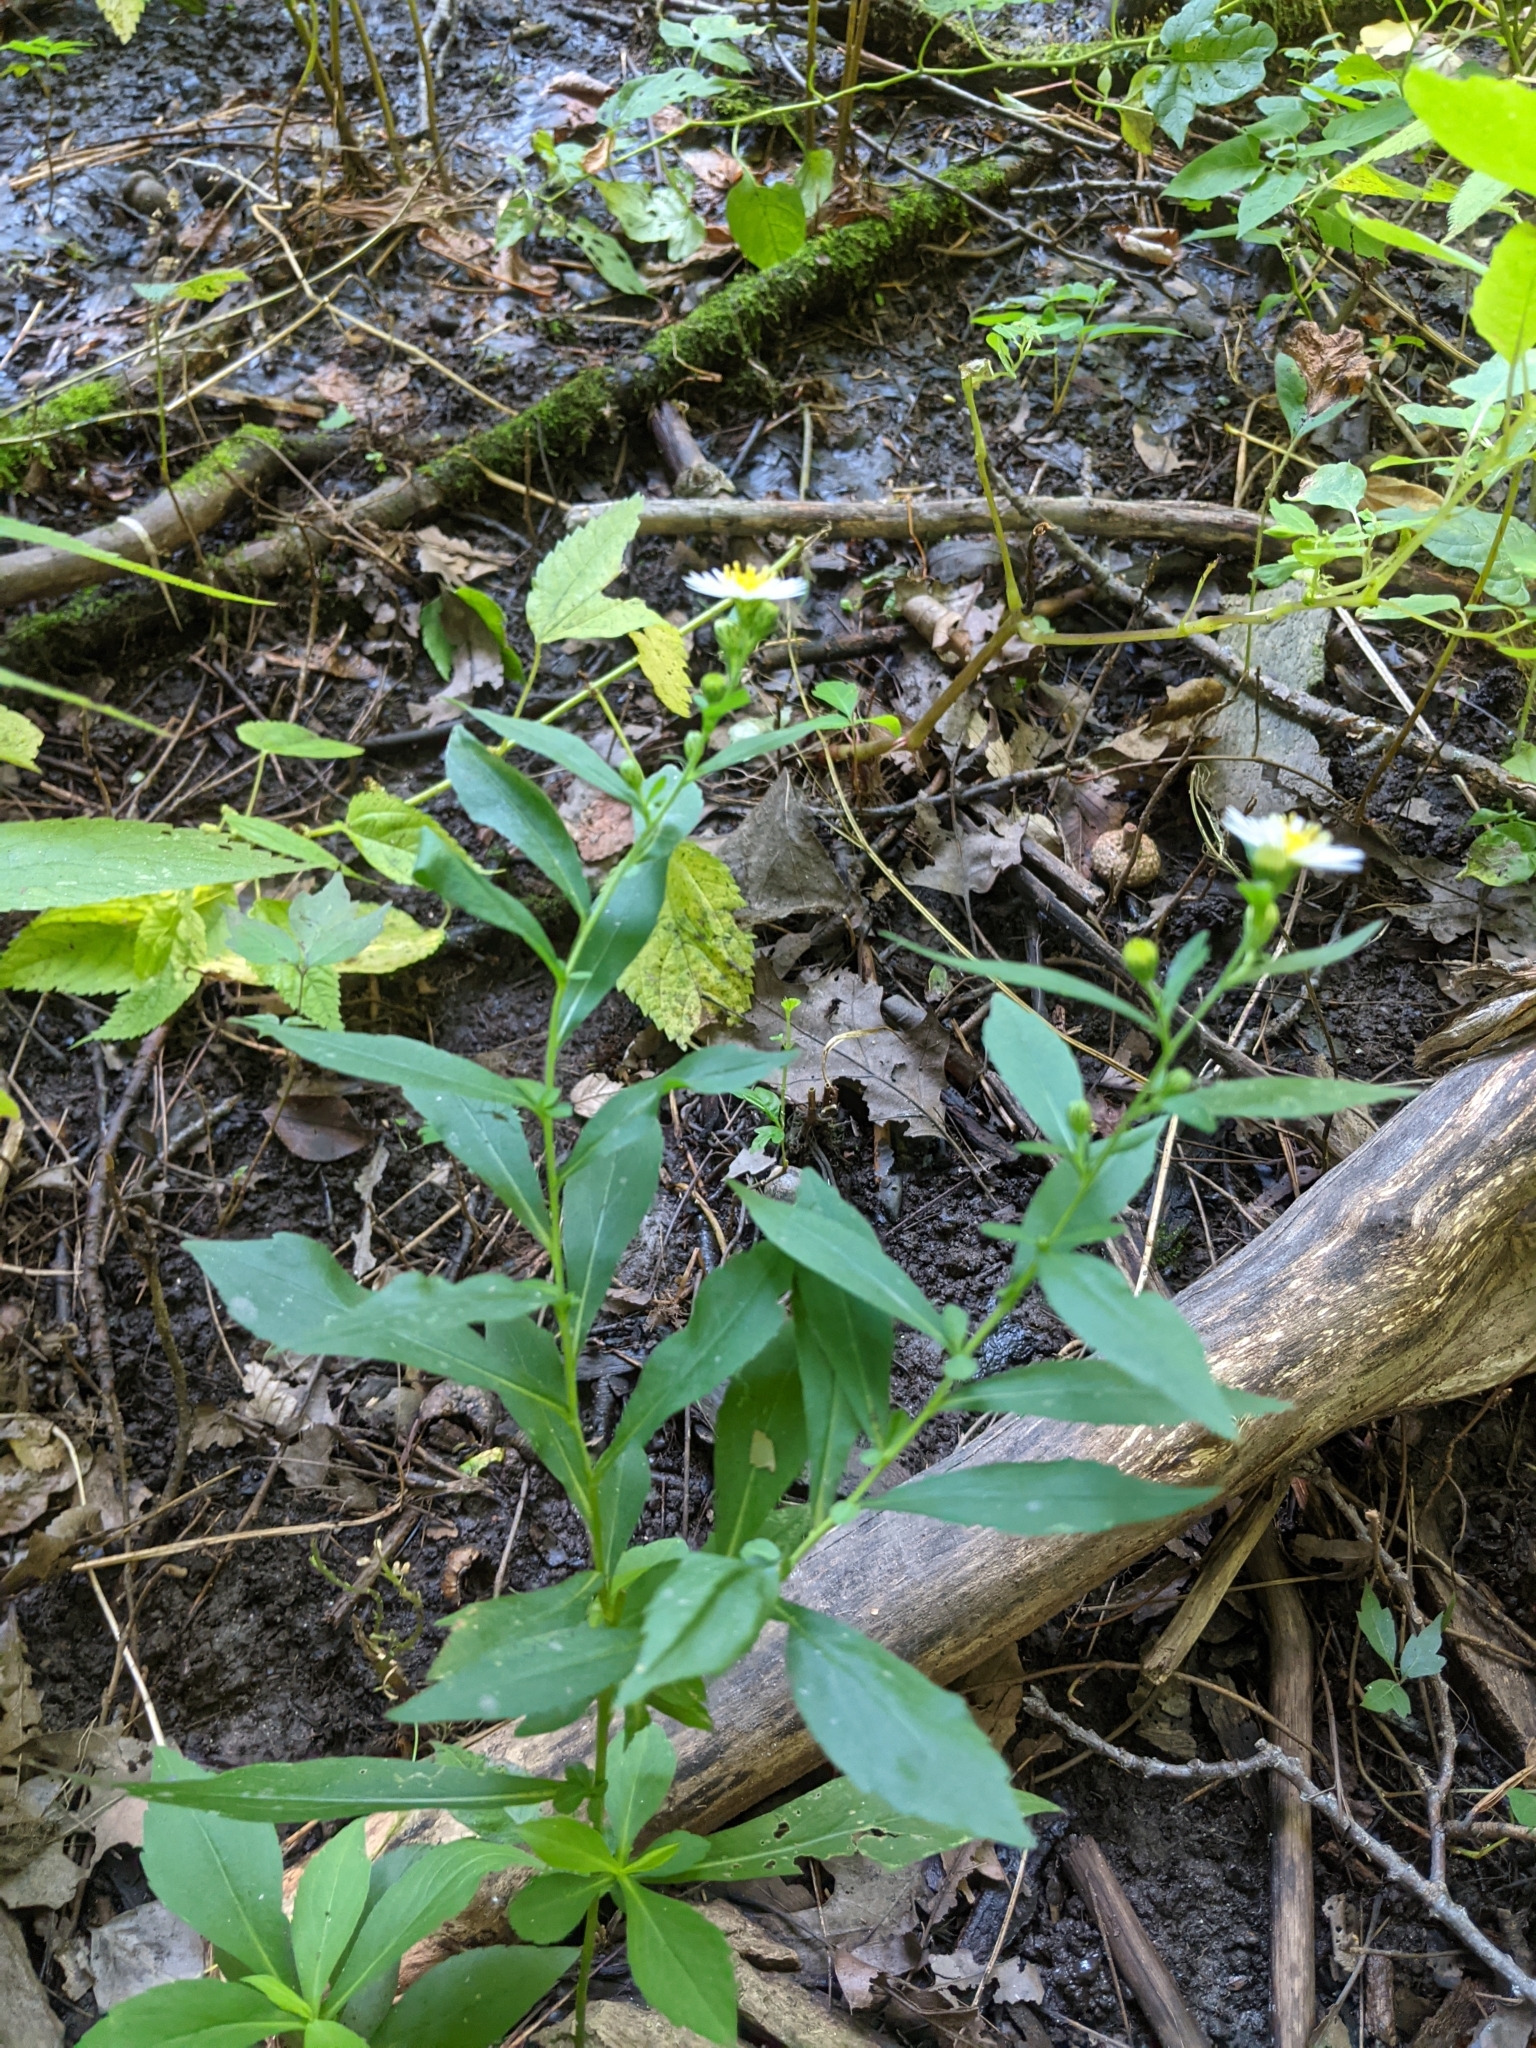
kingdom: Plantae
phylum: Tracheophyta
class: Magnoliopsida
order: Asterales
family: Asteraceae
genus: Symphyotrichum
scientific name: Symphyotrichum lanceolatum
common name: Panicled aster
